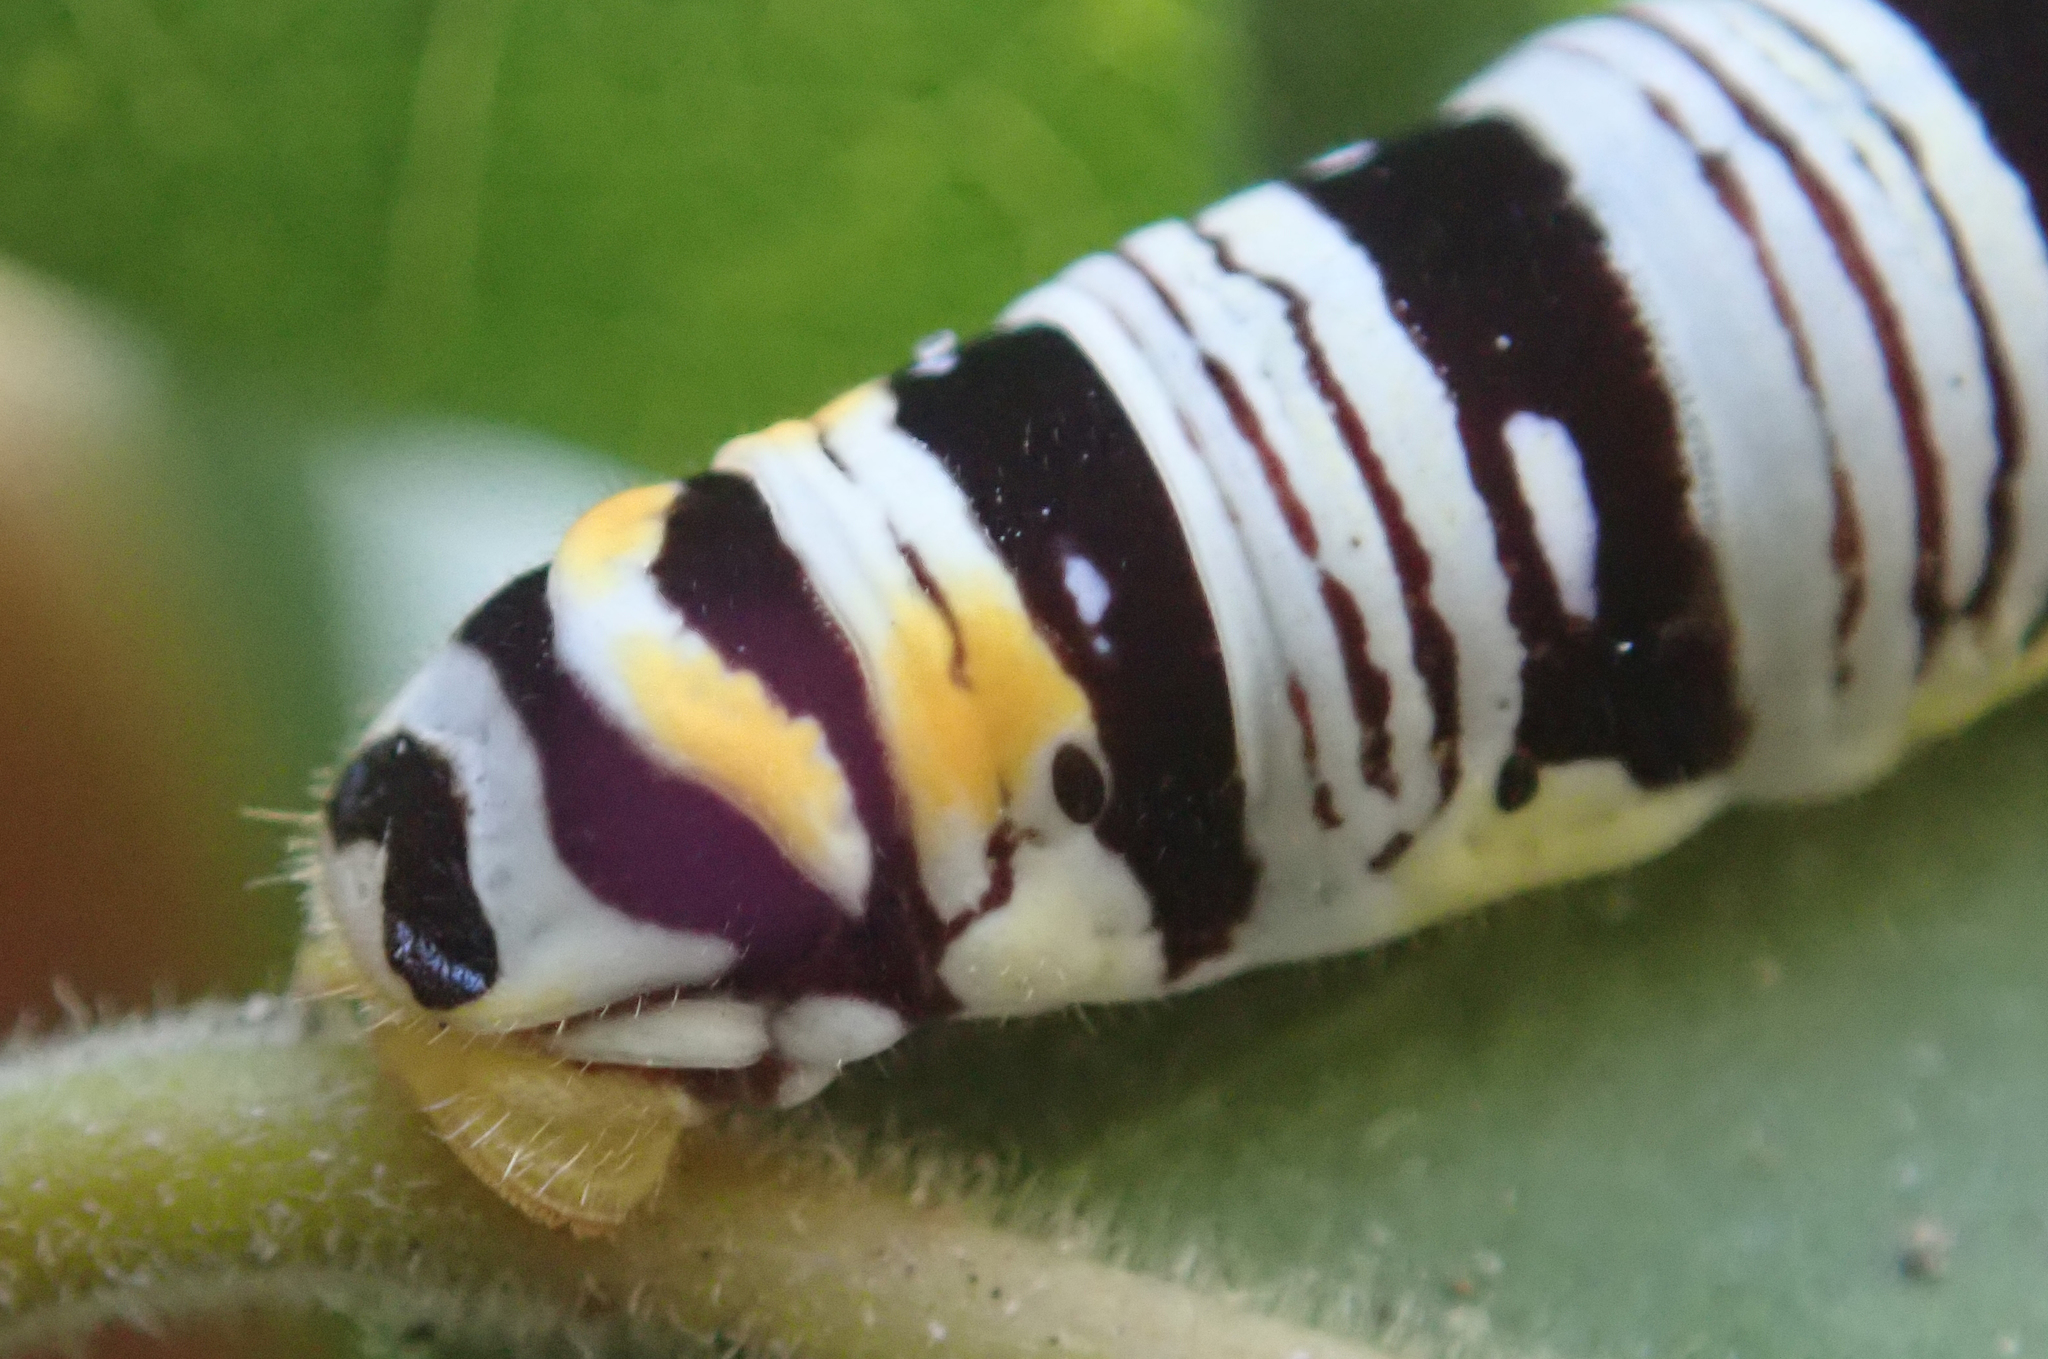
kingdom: Animalia
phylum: Arthropoda
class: Insecta
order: Lepidoptera
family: Hesperiidae
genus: Coeliades
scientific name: Coeliades forestan
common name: Striped policeman
